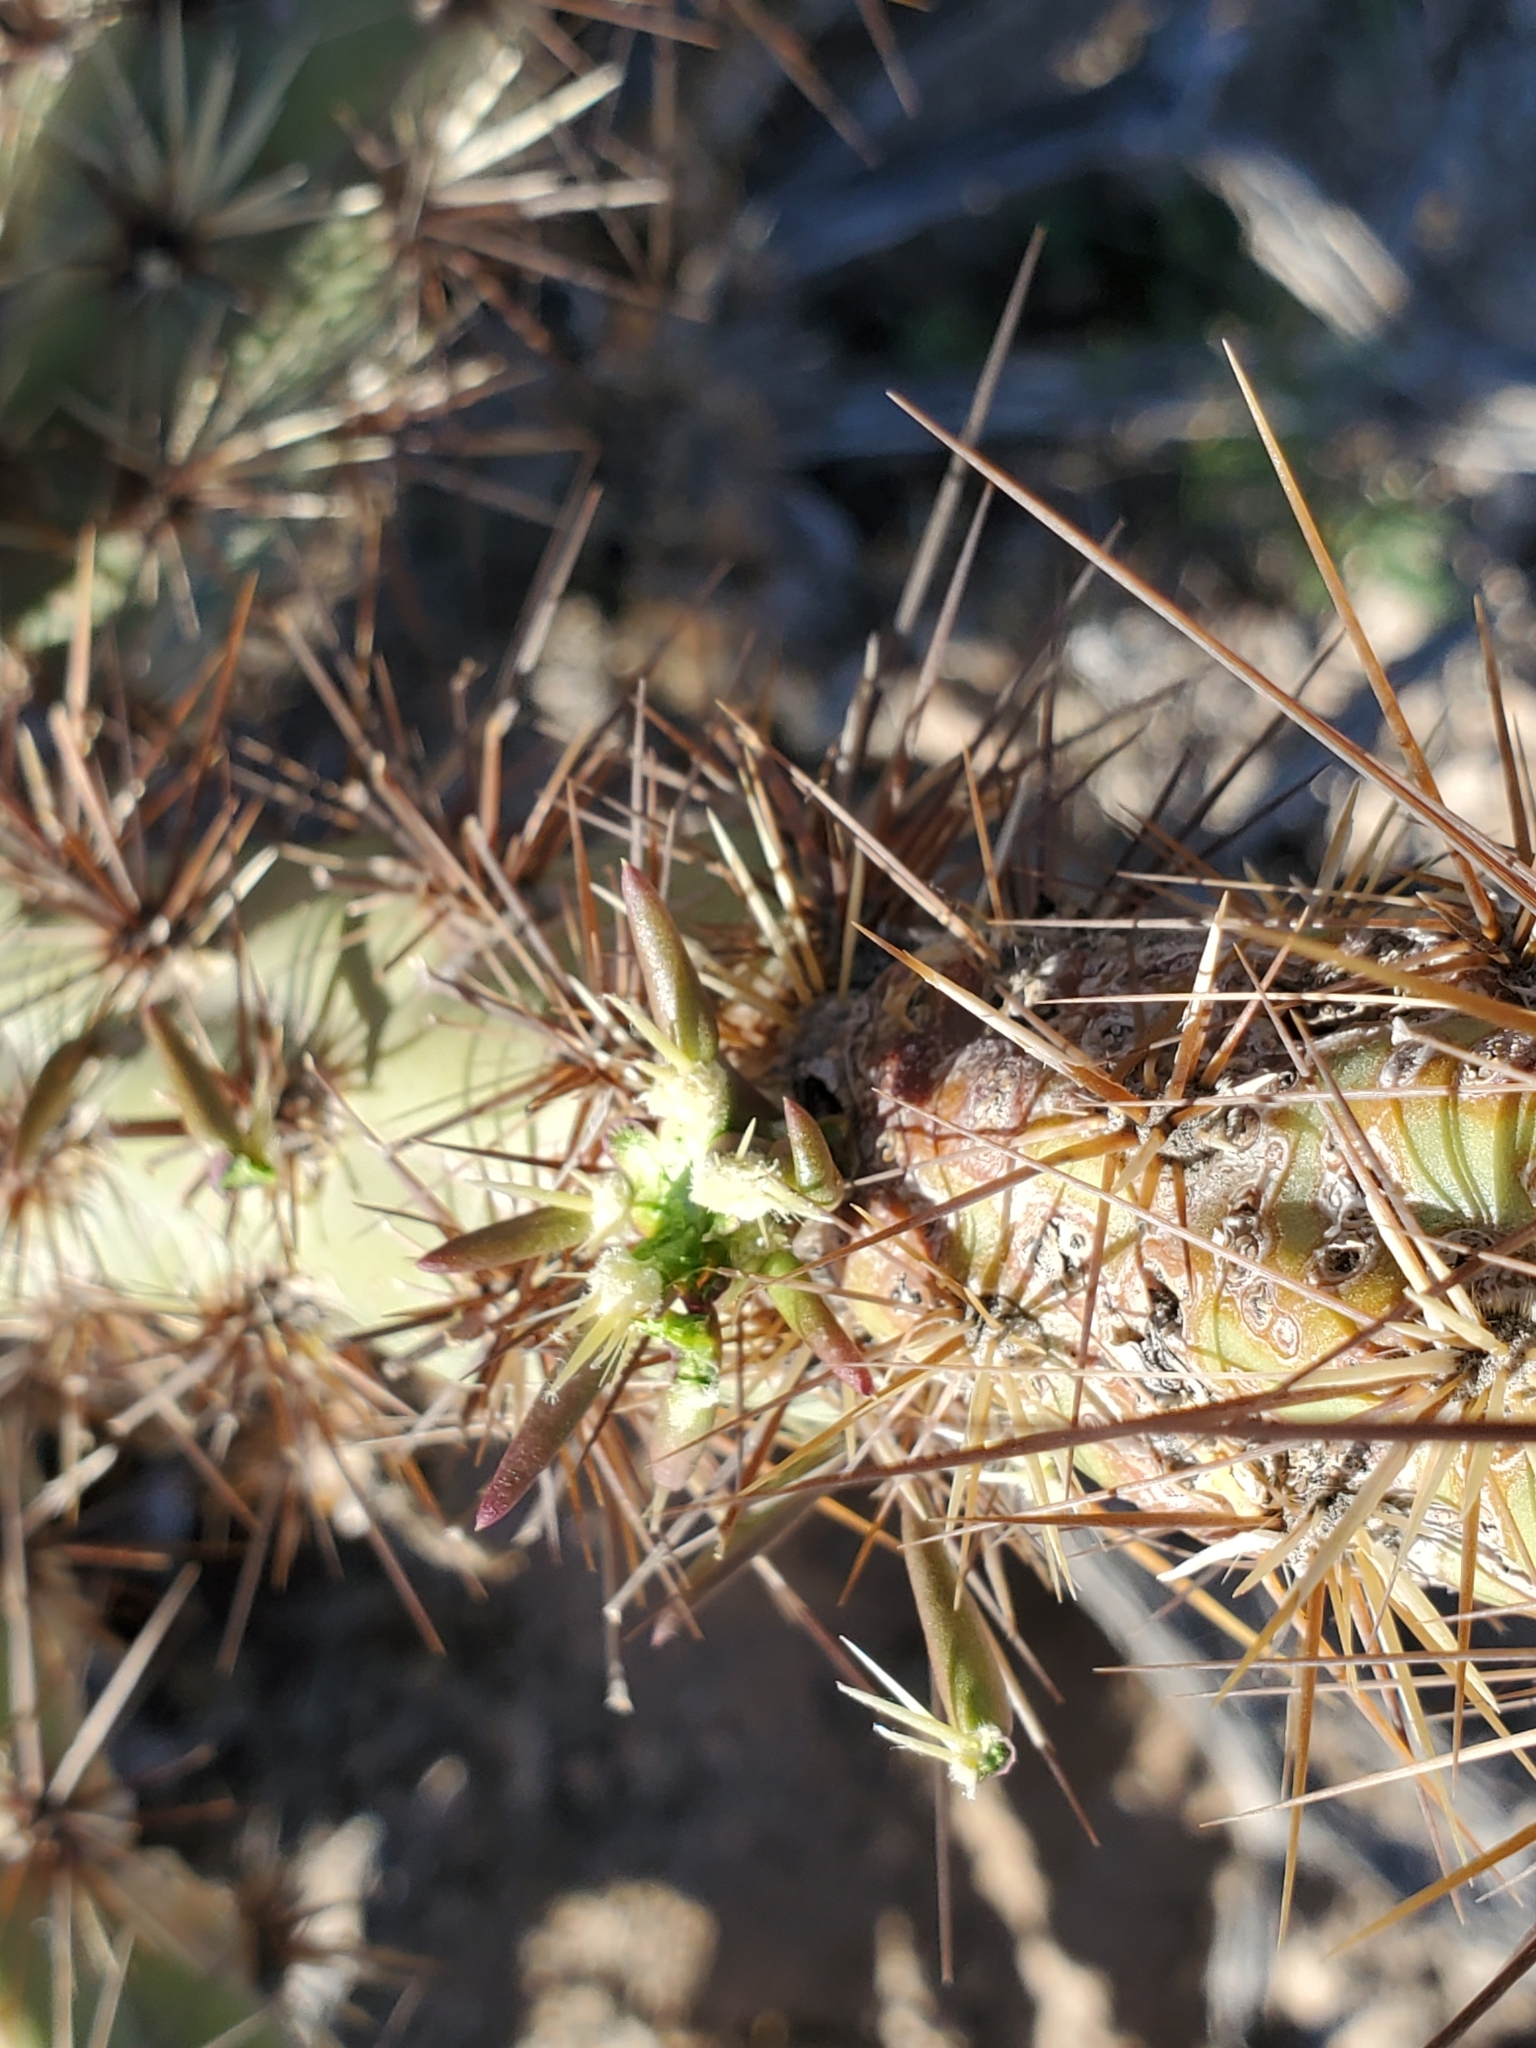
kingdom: Plantae
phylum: Tracheophyta
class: Magnoliopsida
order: Caryophyllales
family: Cactaceae
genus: Cylindropuntia
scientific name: Cylindropuntia acanthocarpa
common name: Buckhorn cholla
